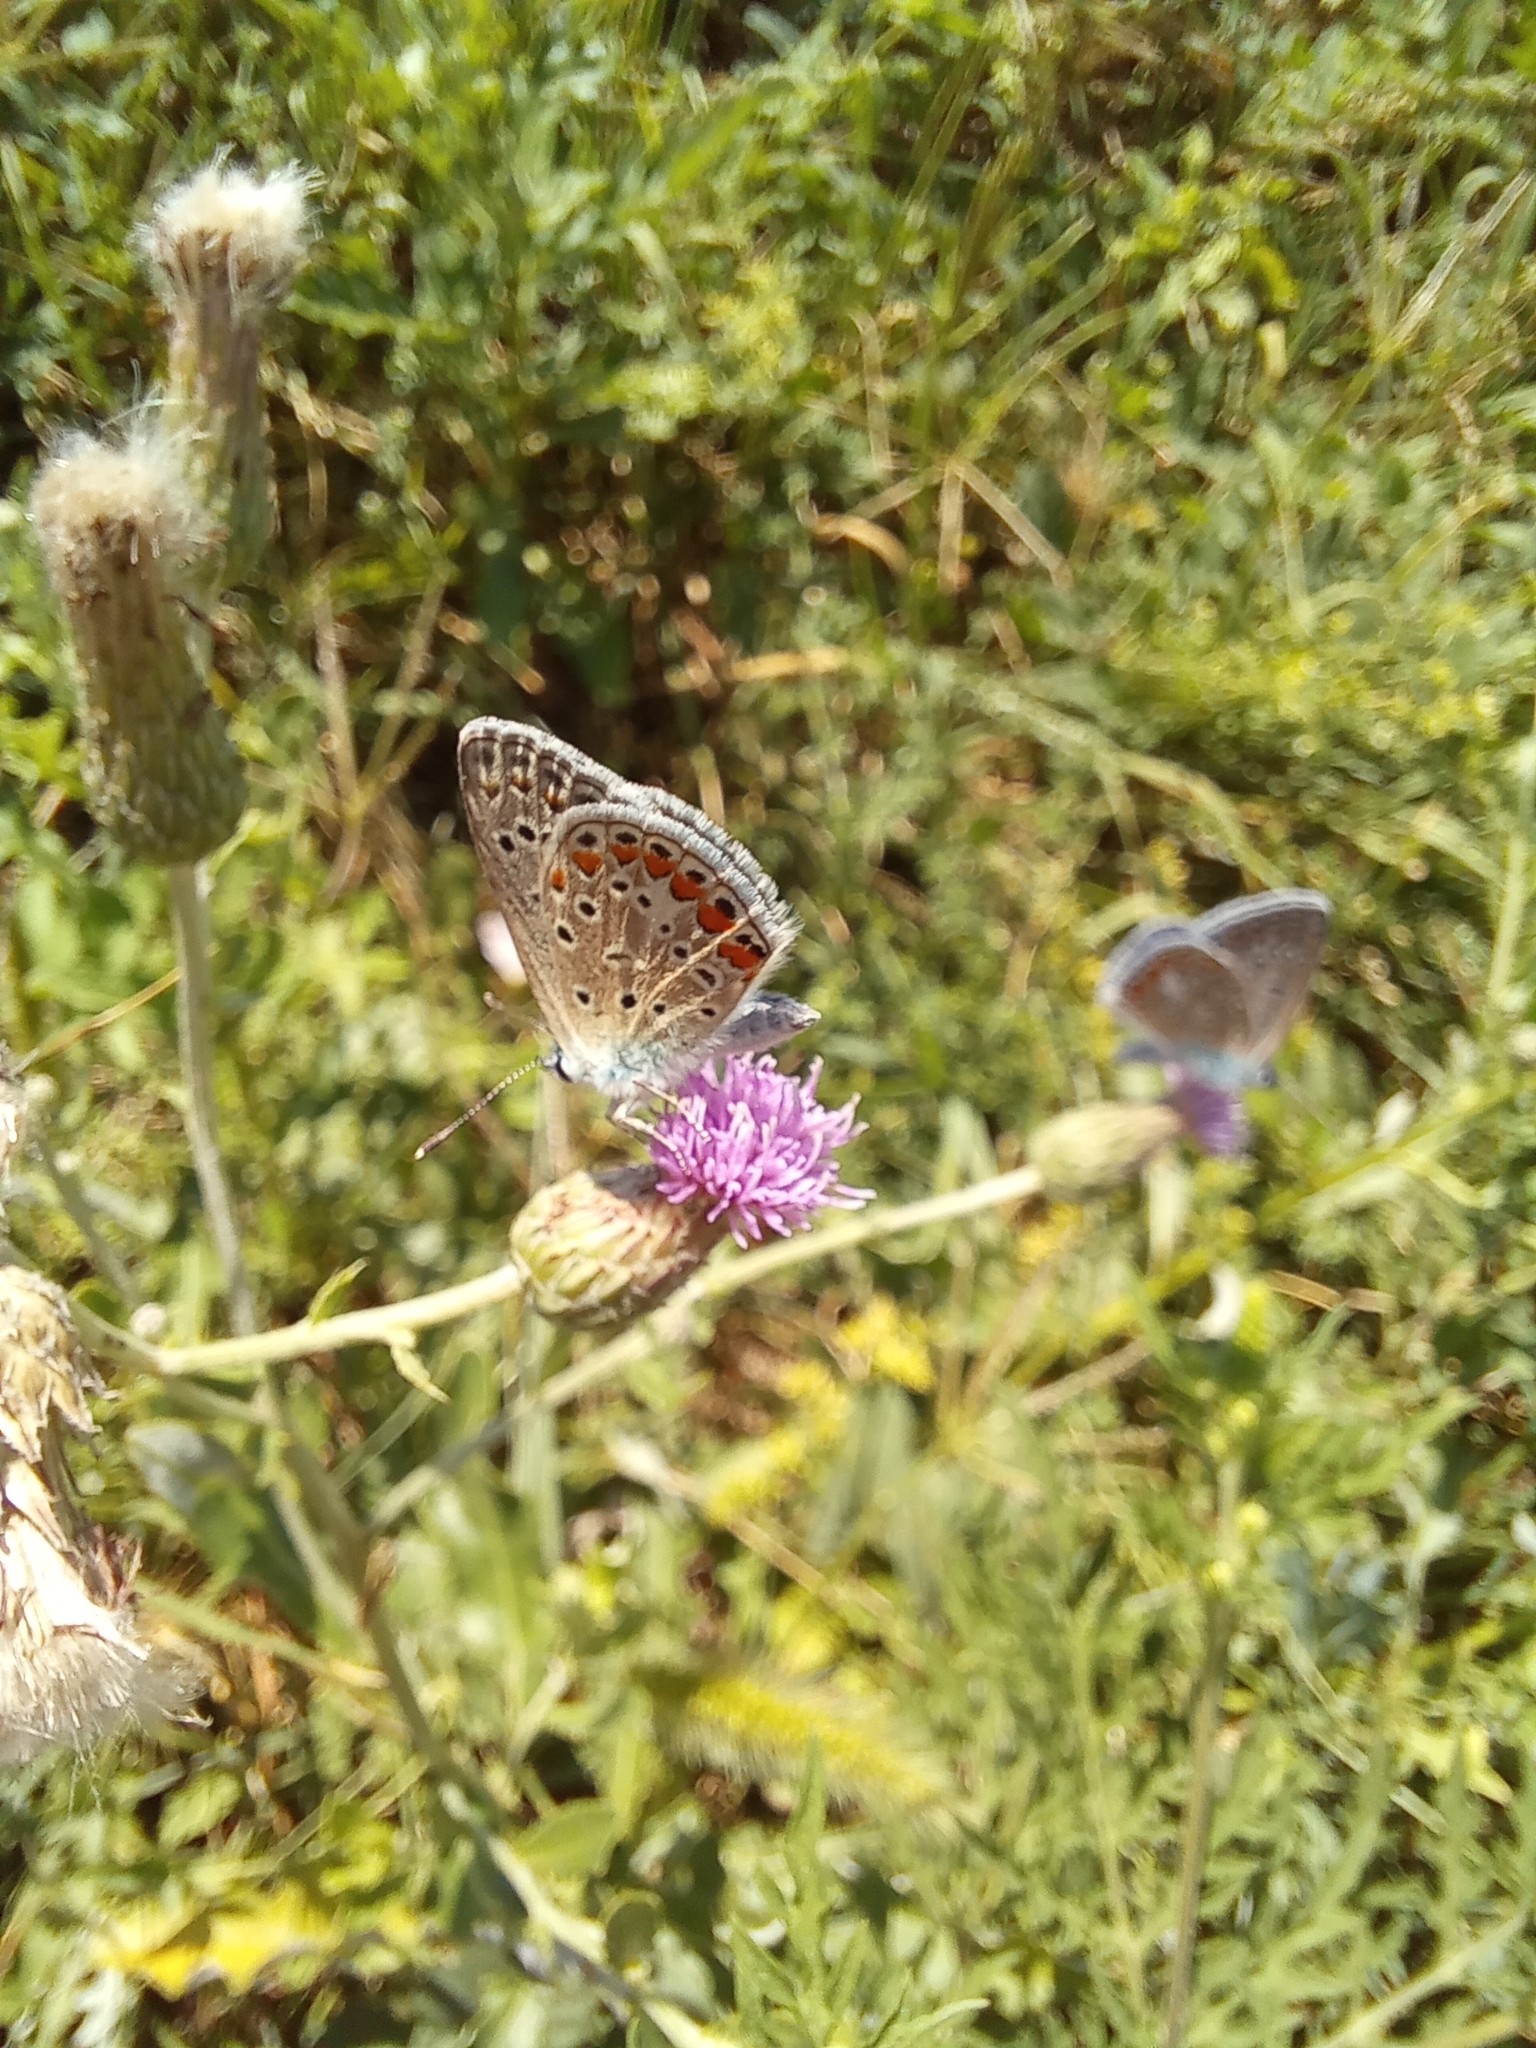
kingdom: Animalia
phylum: Arthropoda
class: Insecta
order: Lepidoptera
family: Lycaenidae
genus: Polyommatus
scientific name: Polyommatus icarus
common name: Common blue
